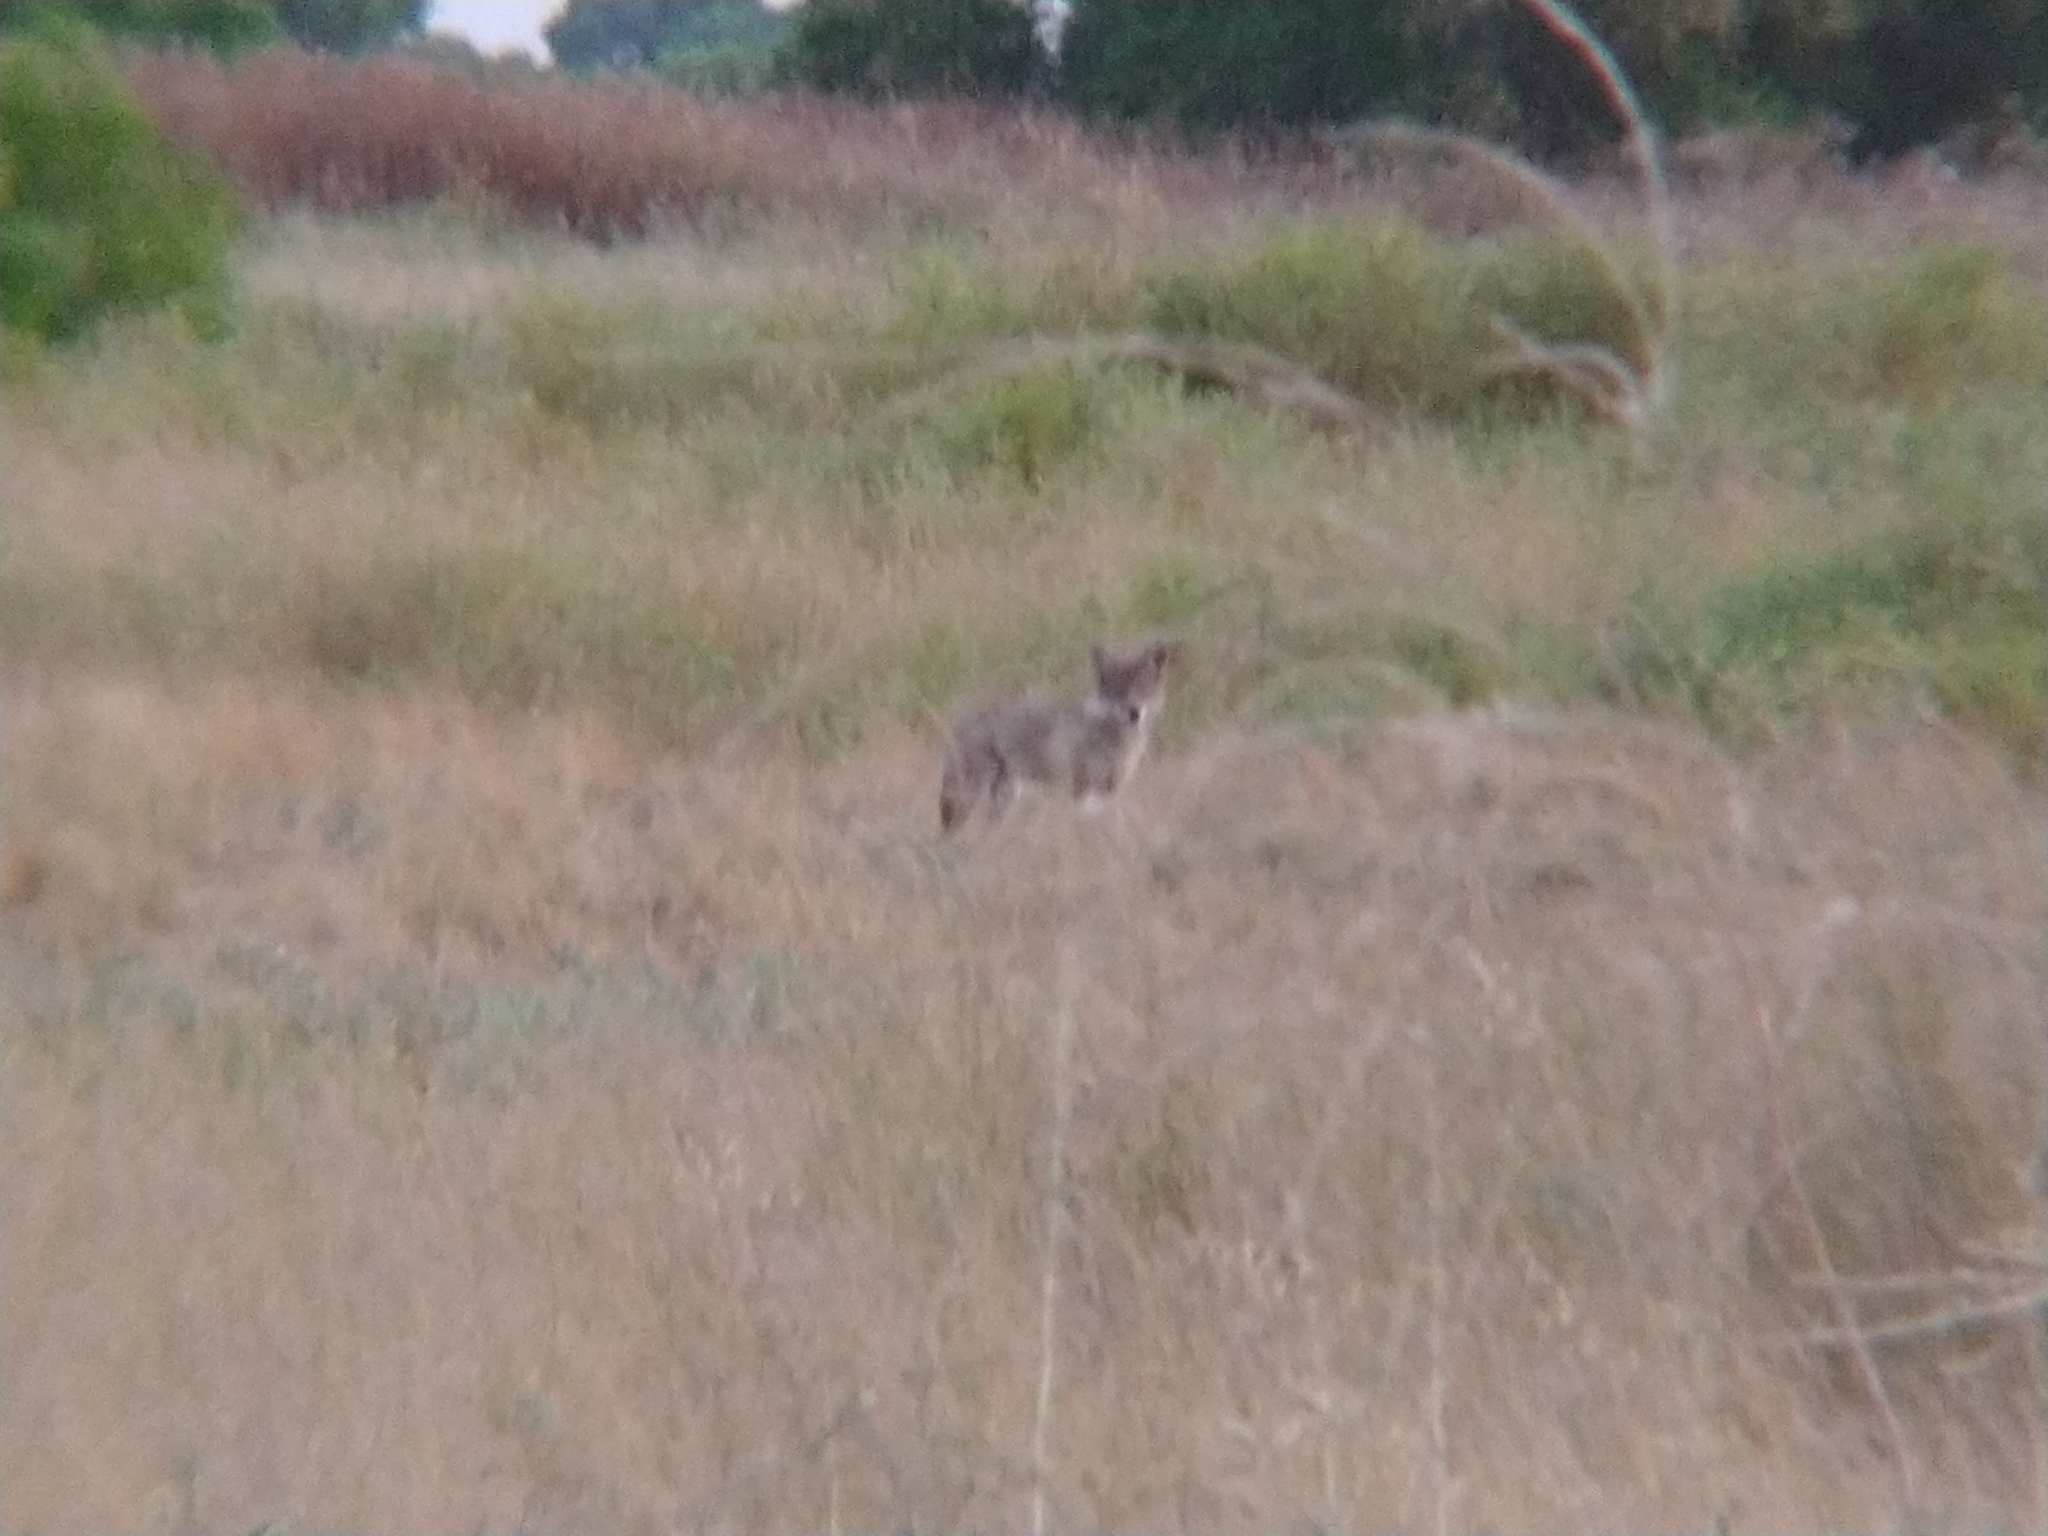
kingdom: Animalia
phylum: Chordata
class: Mammalia
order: Carnivora
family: Canidae
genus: Canis
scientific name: Canis latrans
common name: Coyote
